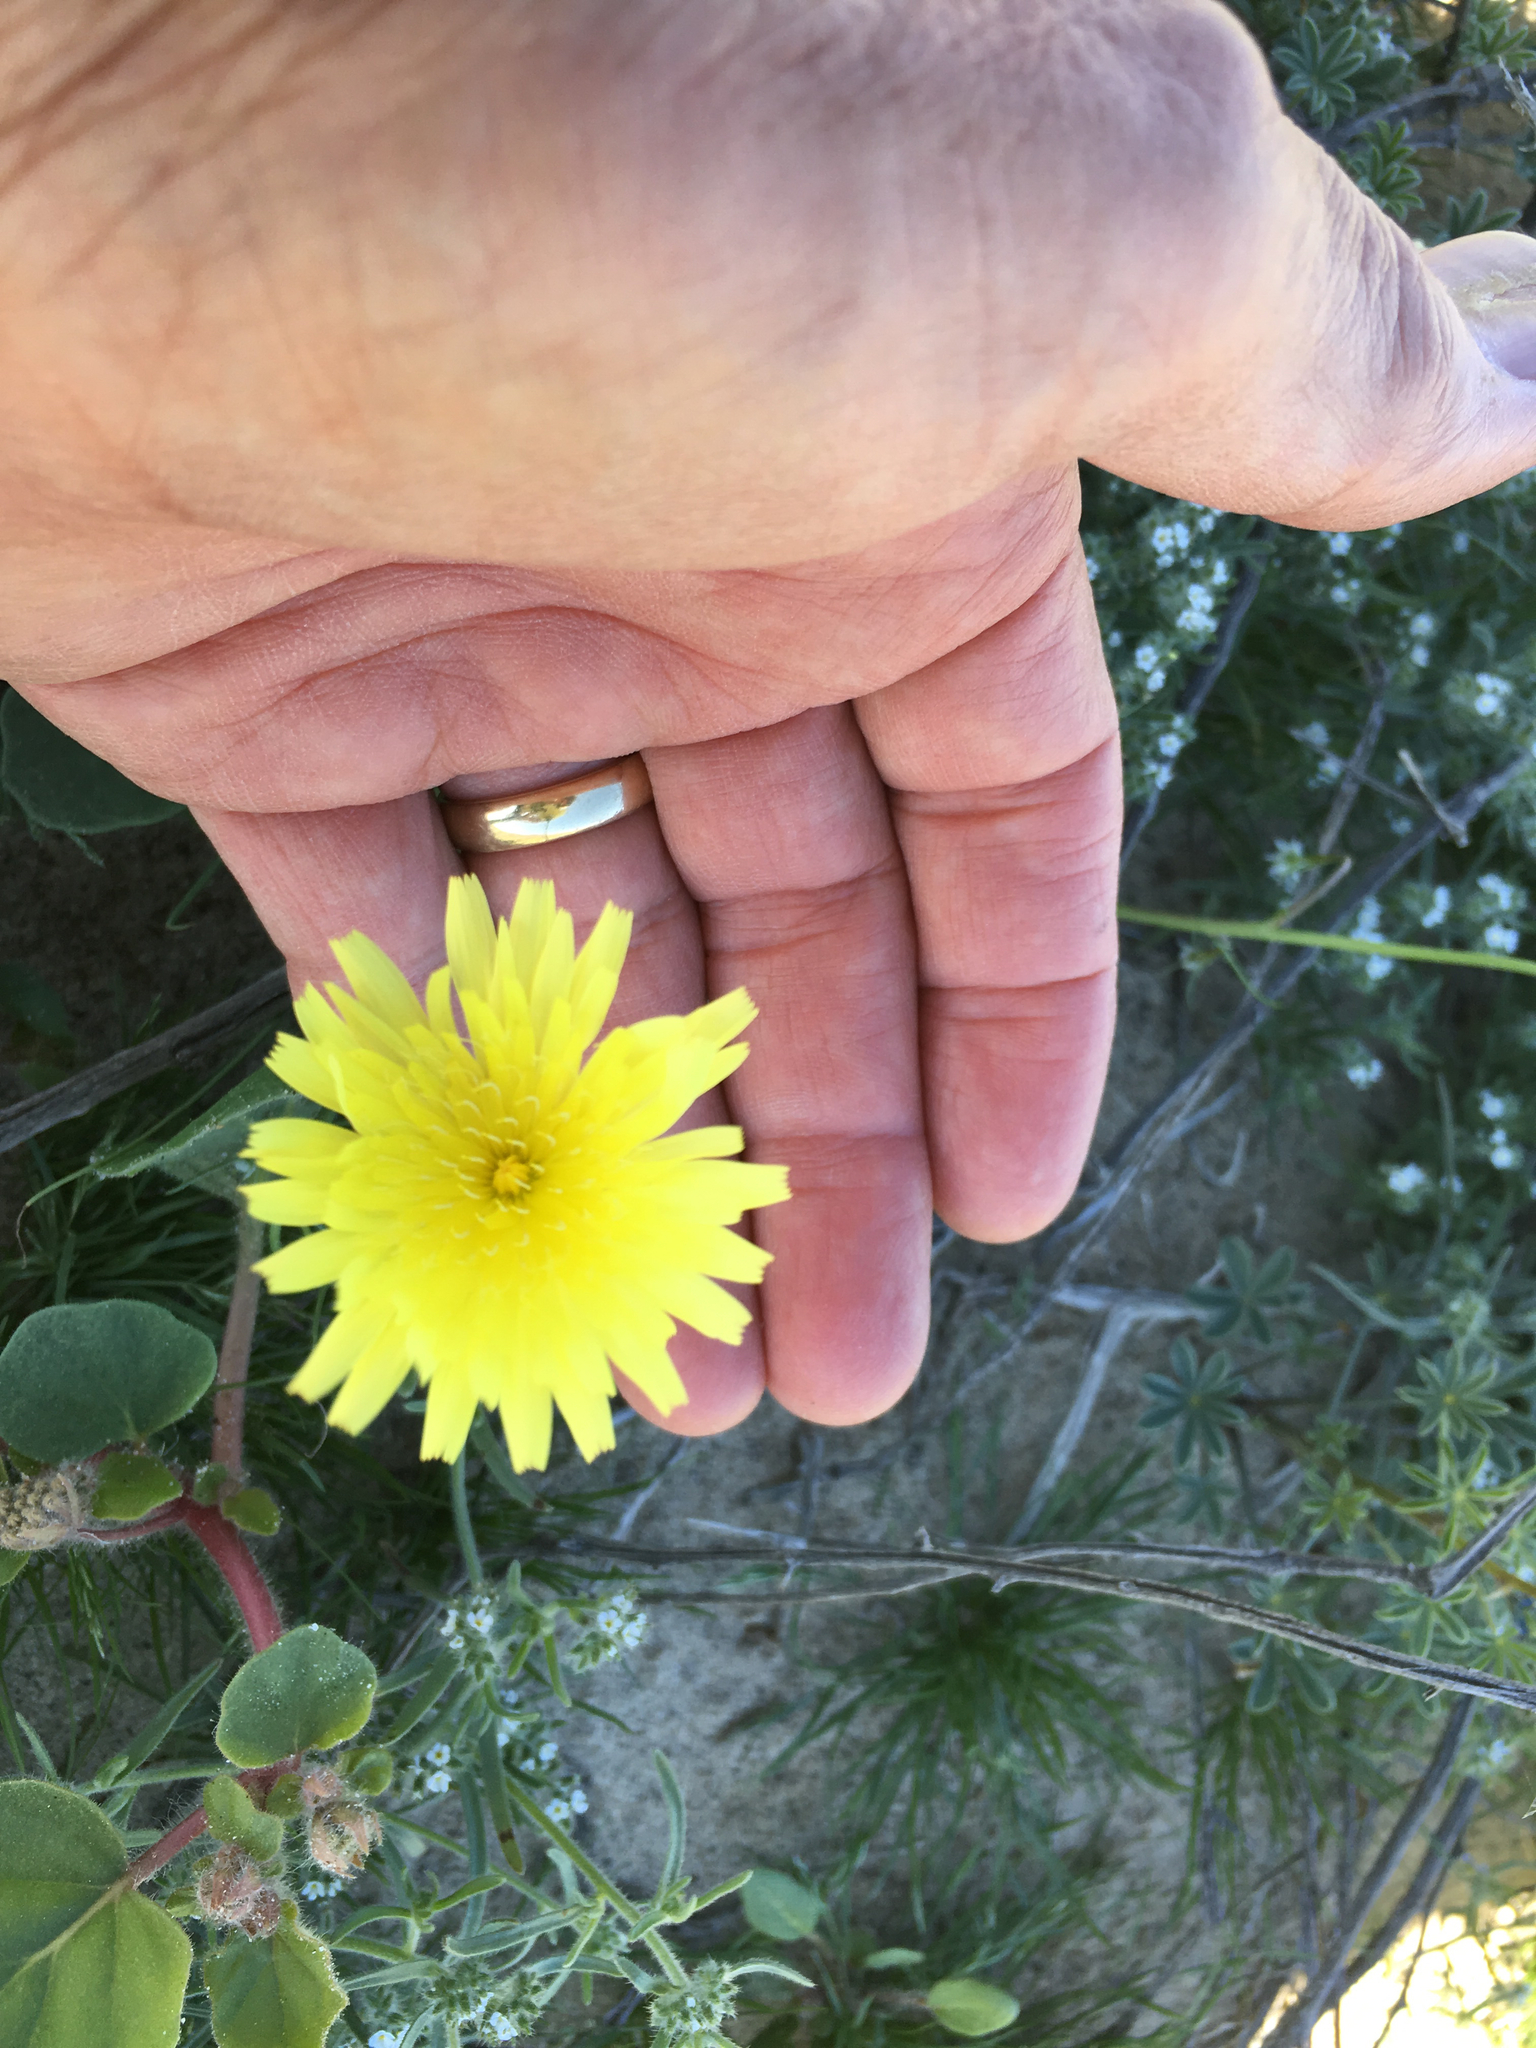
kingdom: Plantae
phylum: Tracheophyta
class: Magnoliopsida
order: Asterales
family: Asteraceae
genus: Malacothrix
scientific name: Malacothrix glabrata
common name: Smooth desert-dandelion
